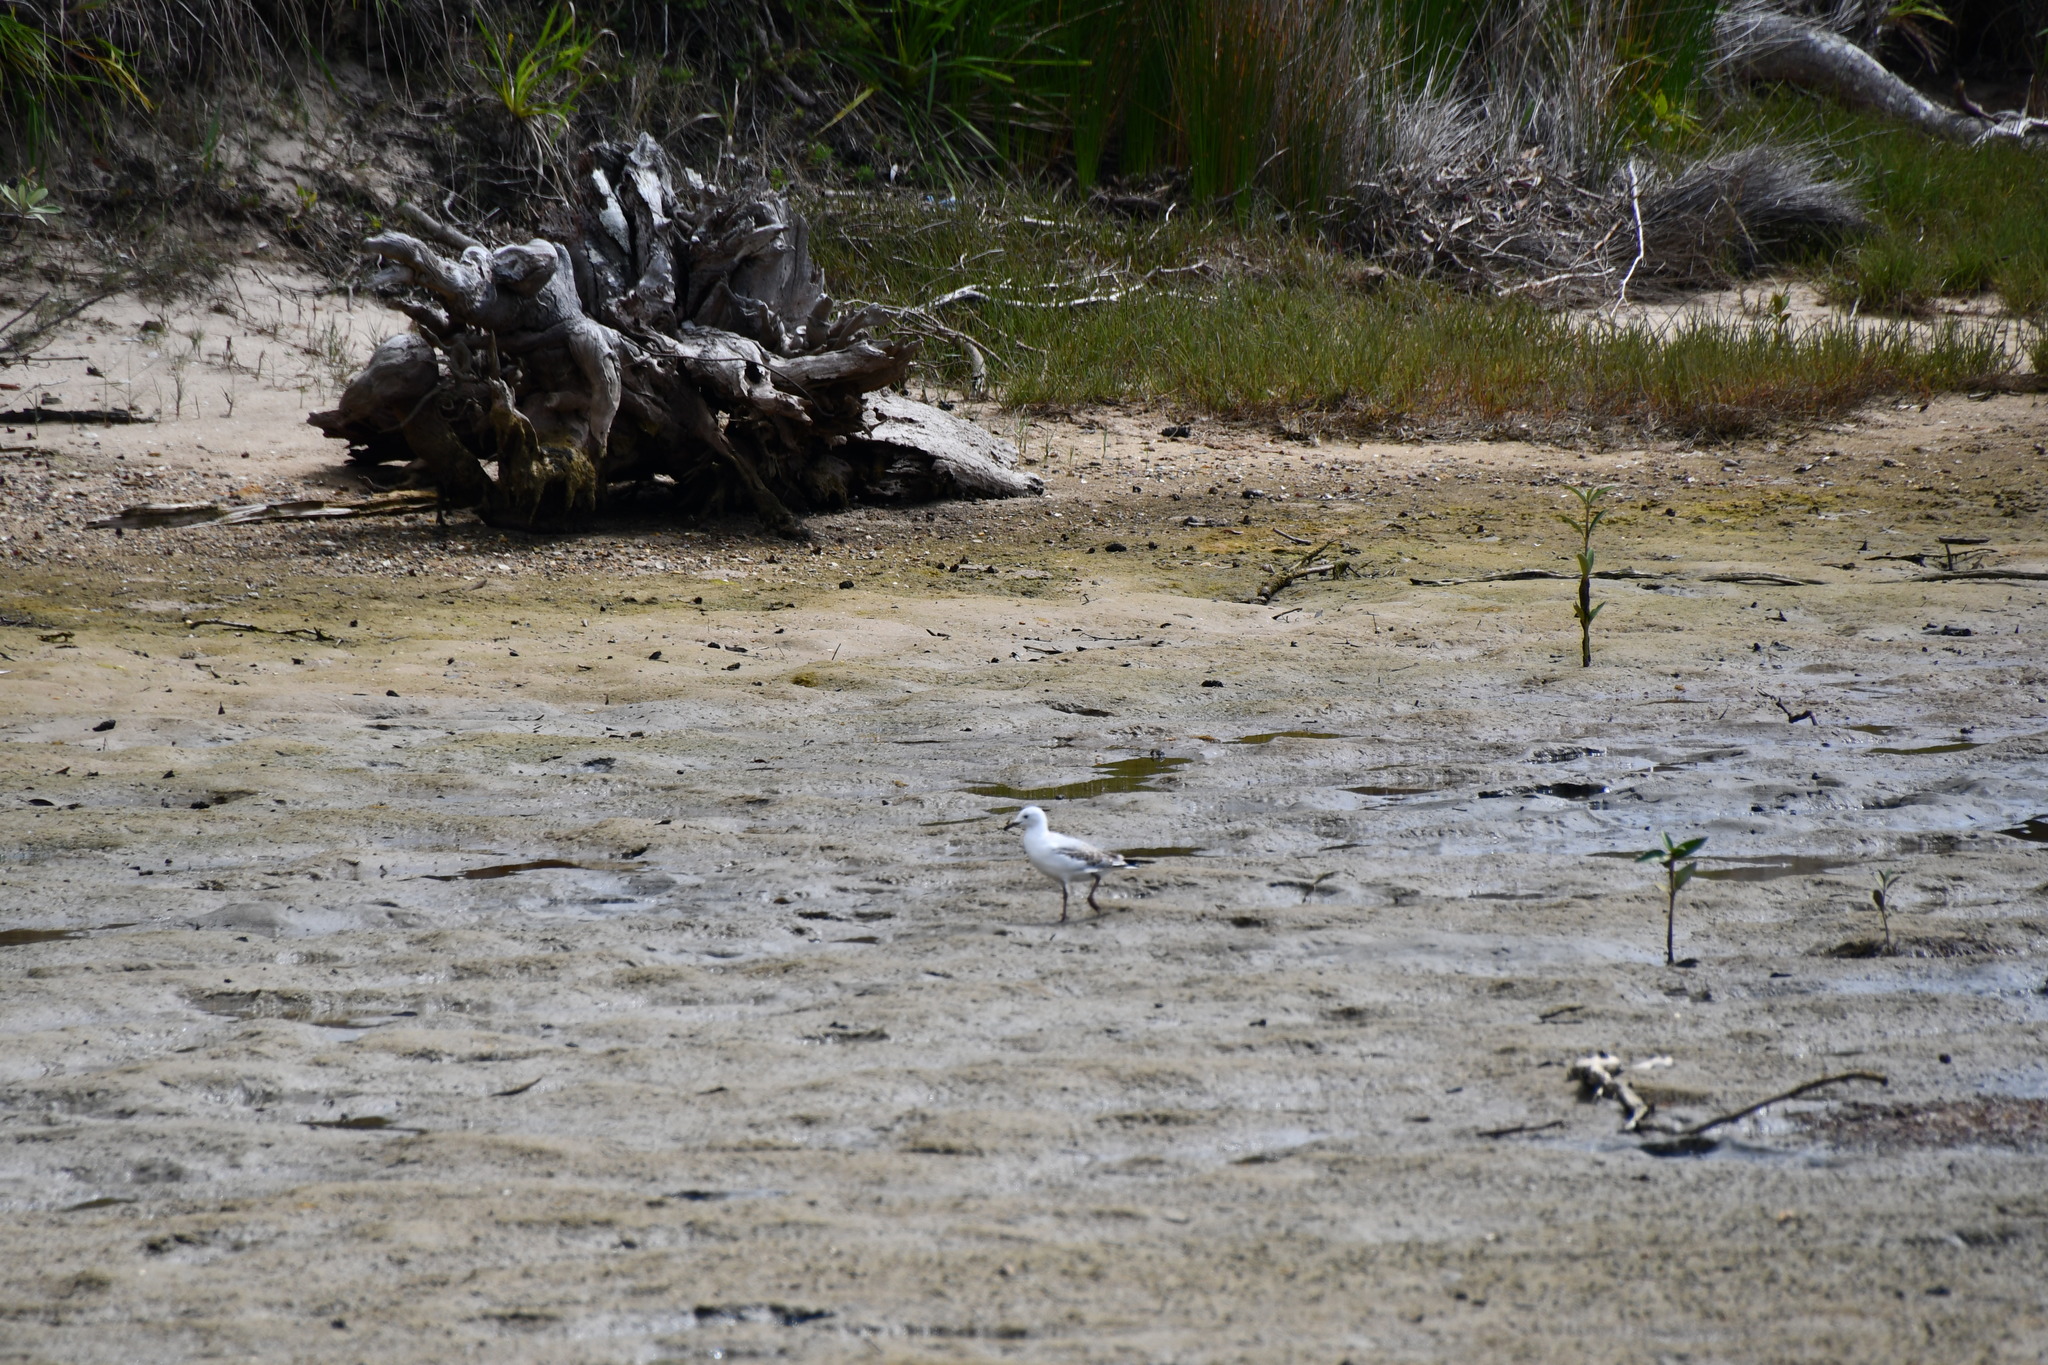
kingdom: Animalia
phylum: Chordata
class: Aves
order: Charadriiformes
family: Laridae
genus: Chroicocephalus
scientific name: Chroicocephalus novaehollandiae
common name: Silver gull
